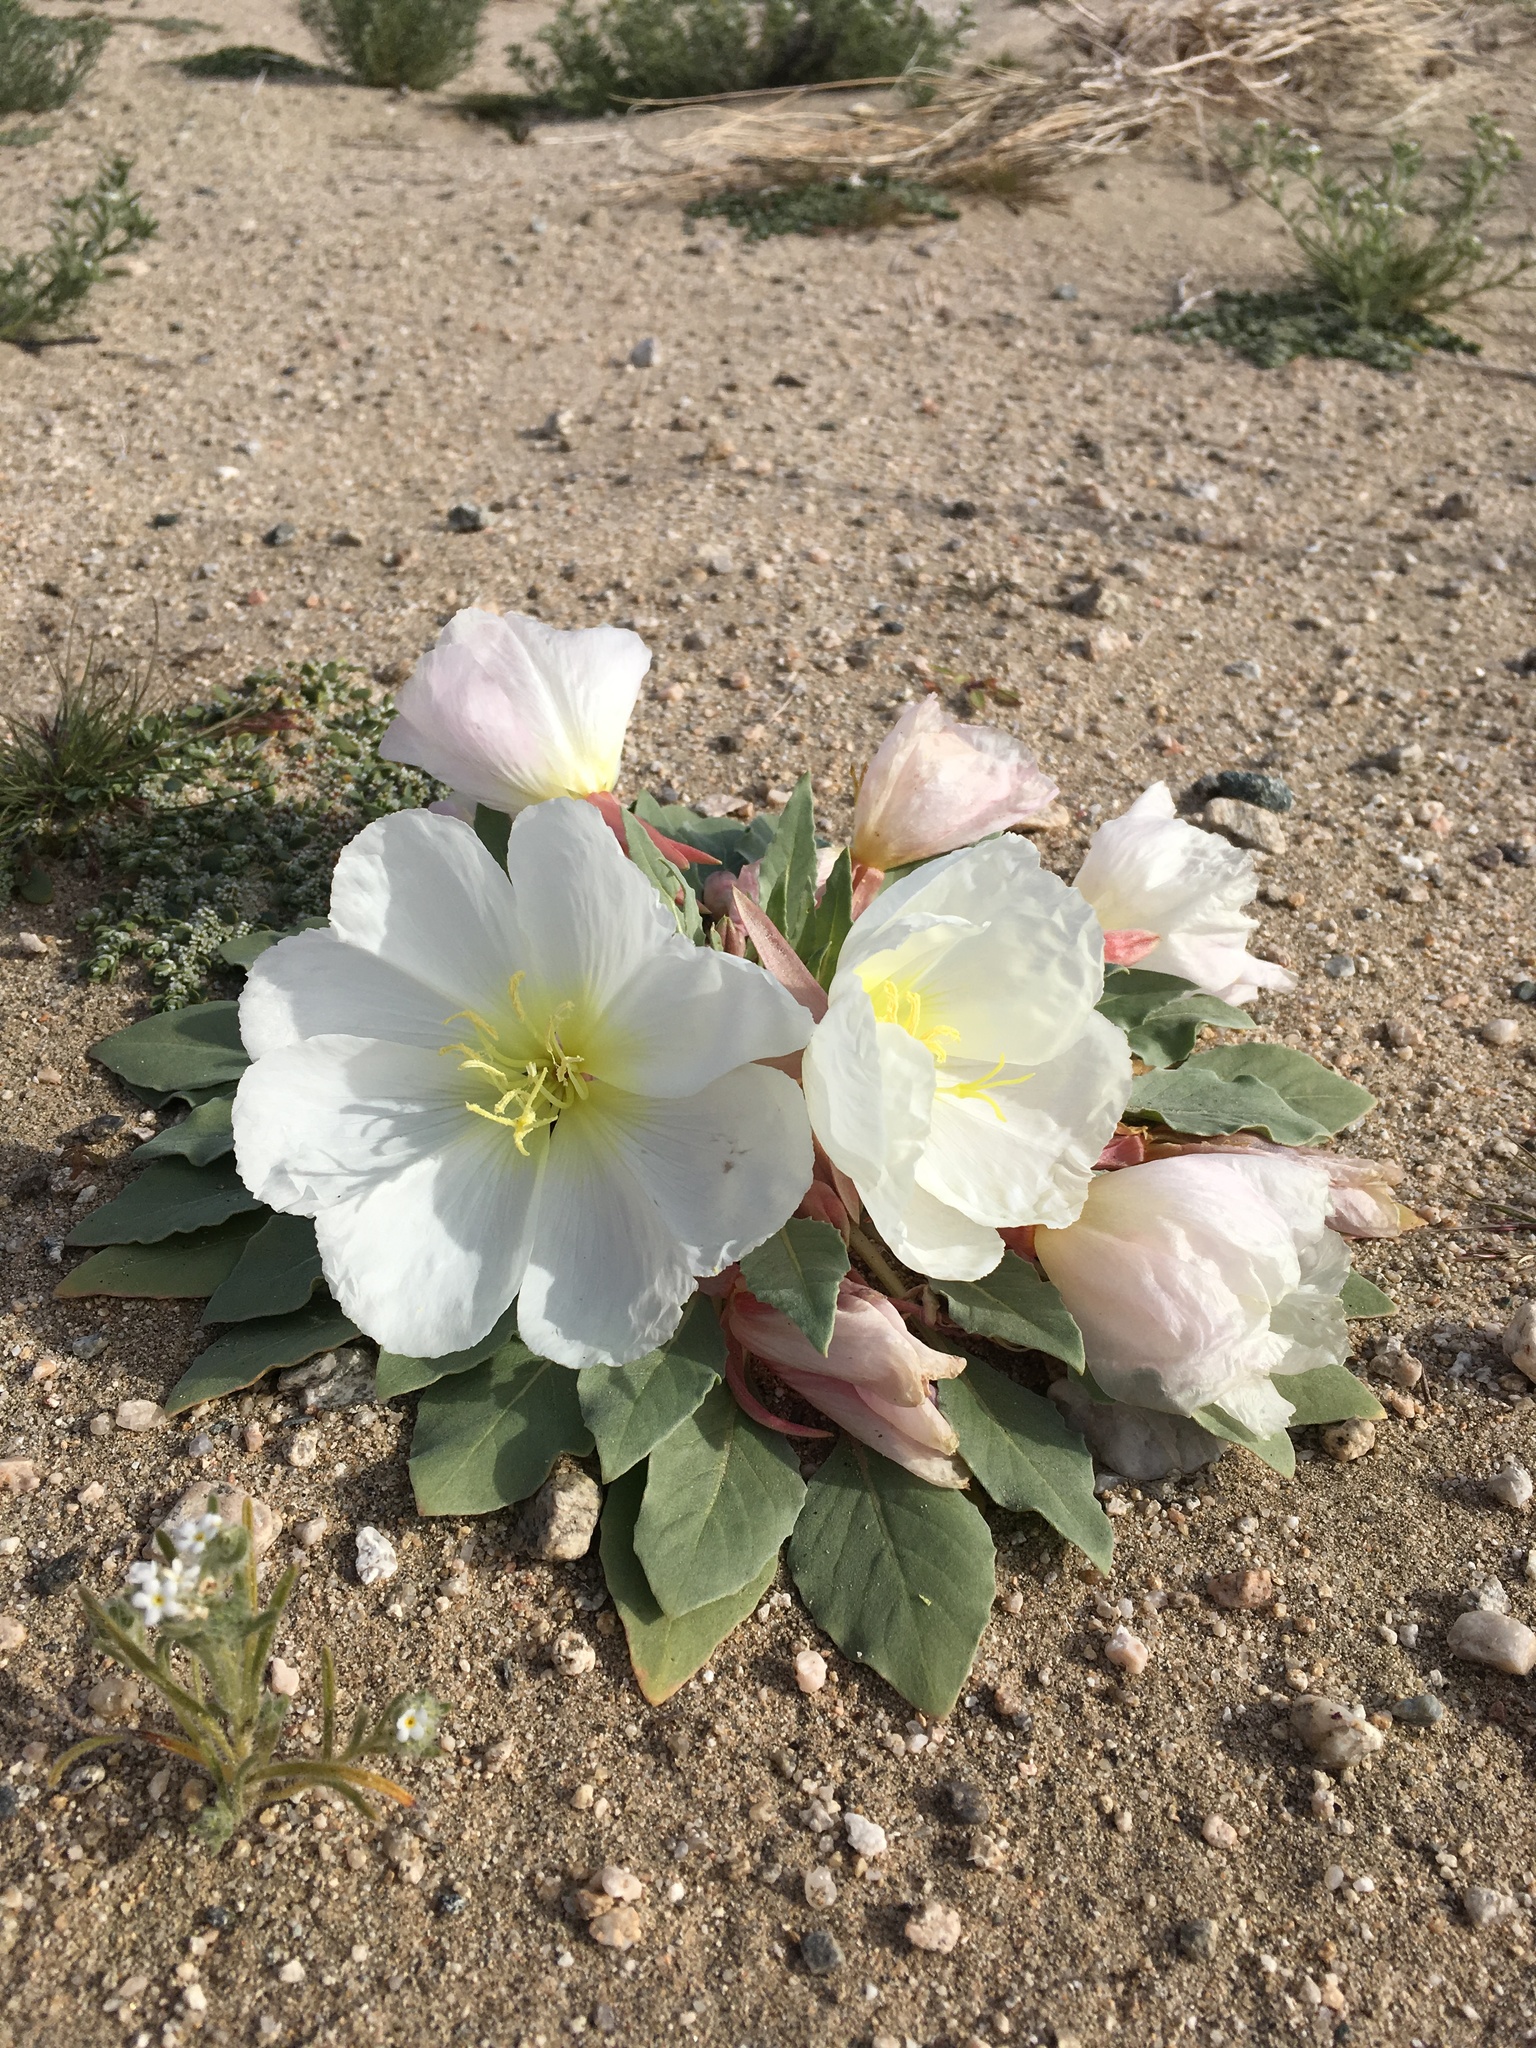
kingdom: Plantae
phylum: Tracheophyta
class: Magnoliopsida
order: Myrtales
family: Onagraceae
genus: Oenothera
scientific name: Oenothera deltoides
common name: Basket evening-primrose
